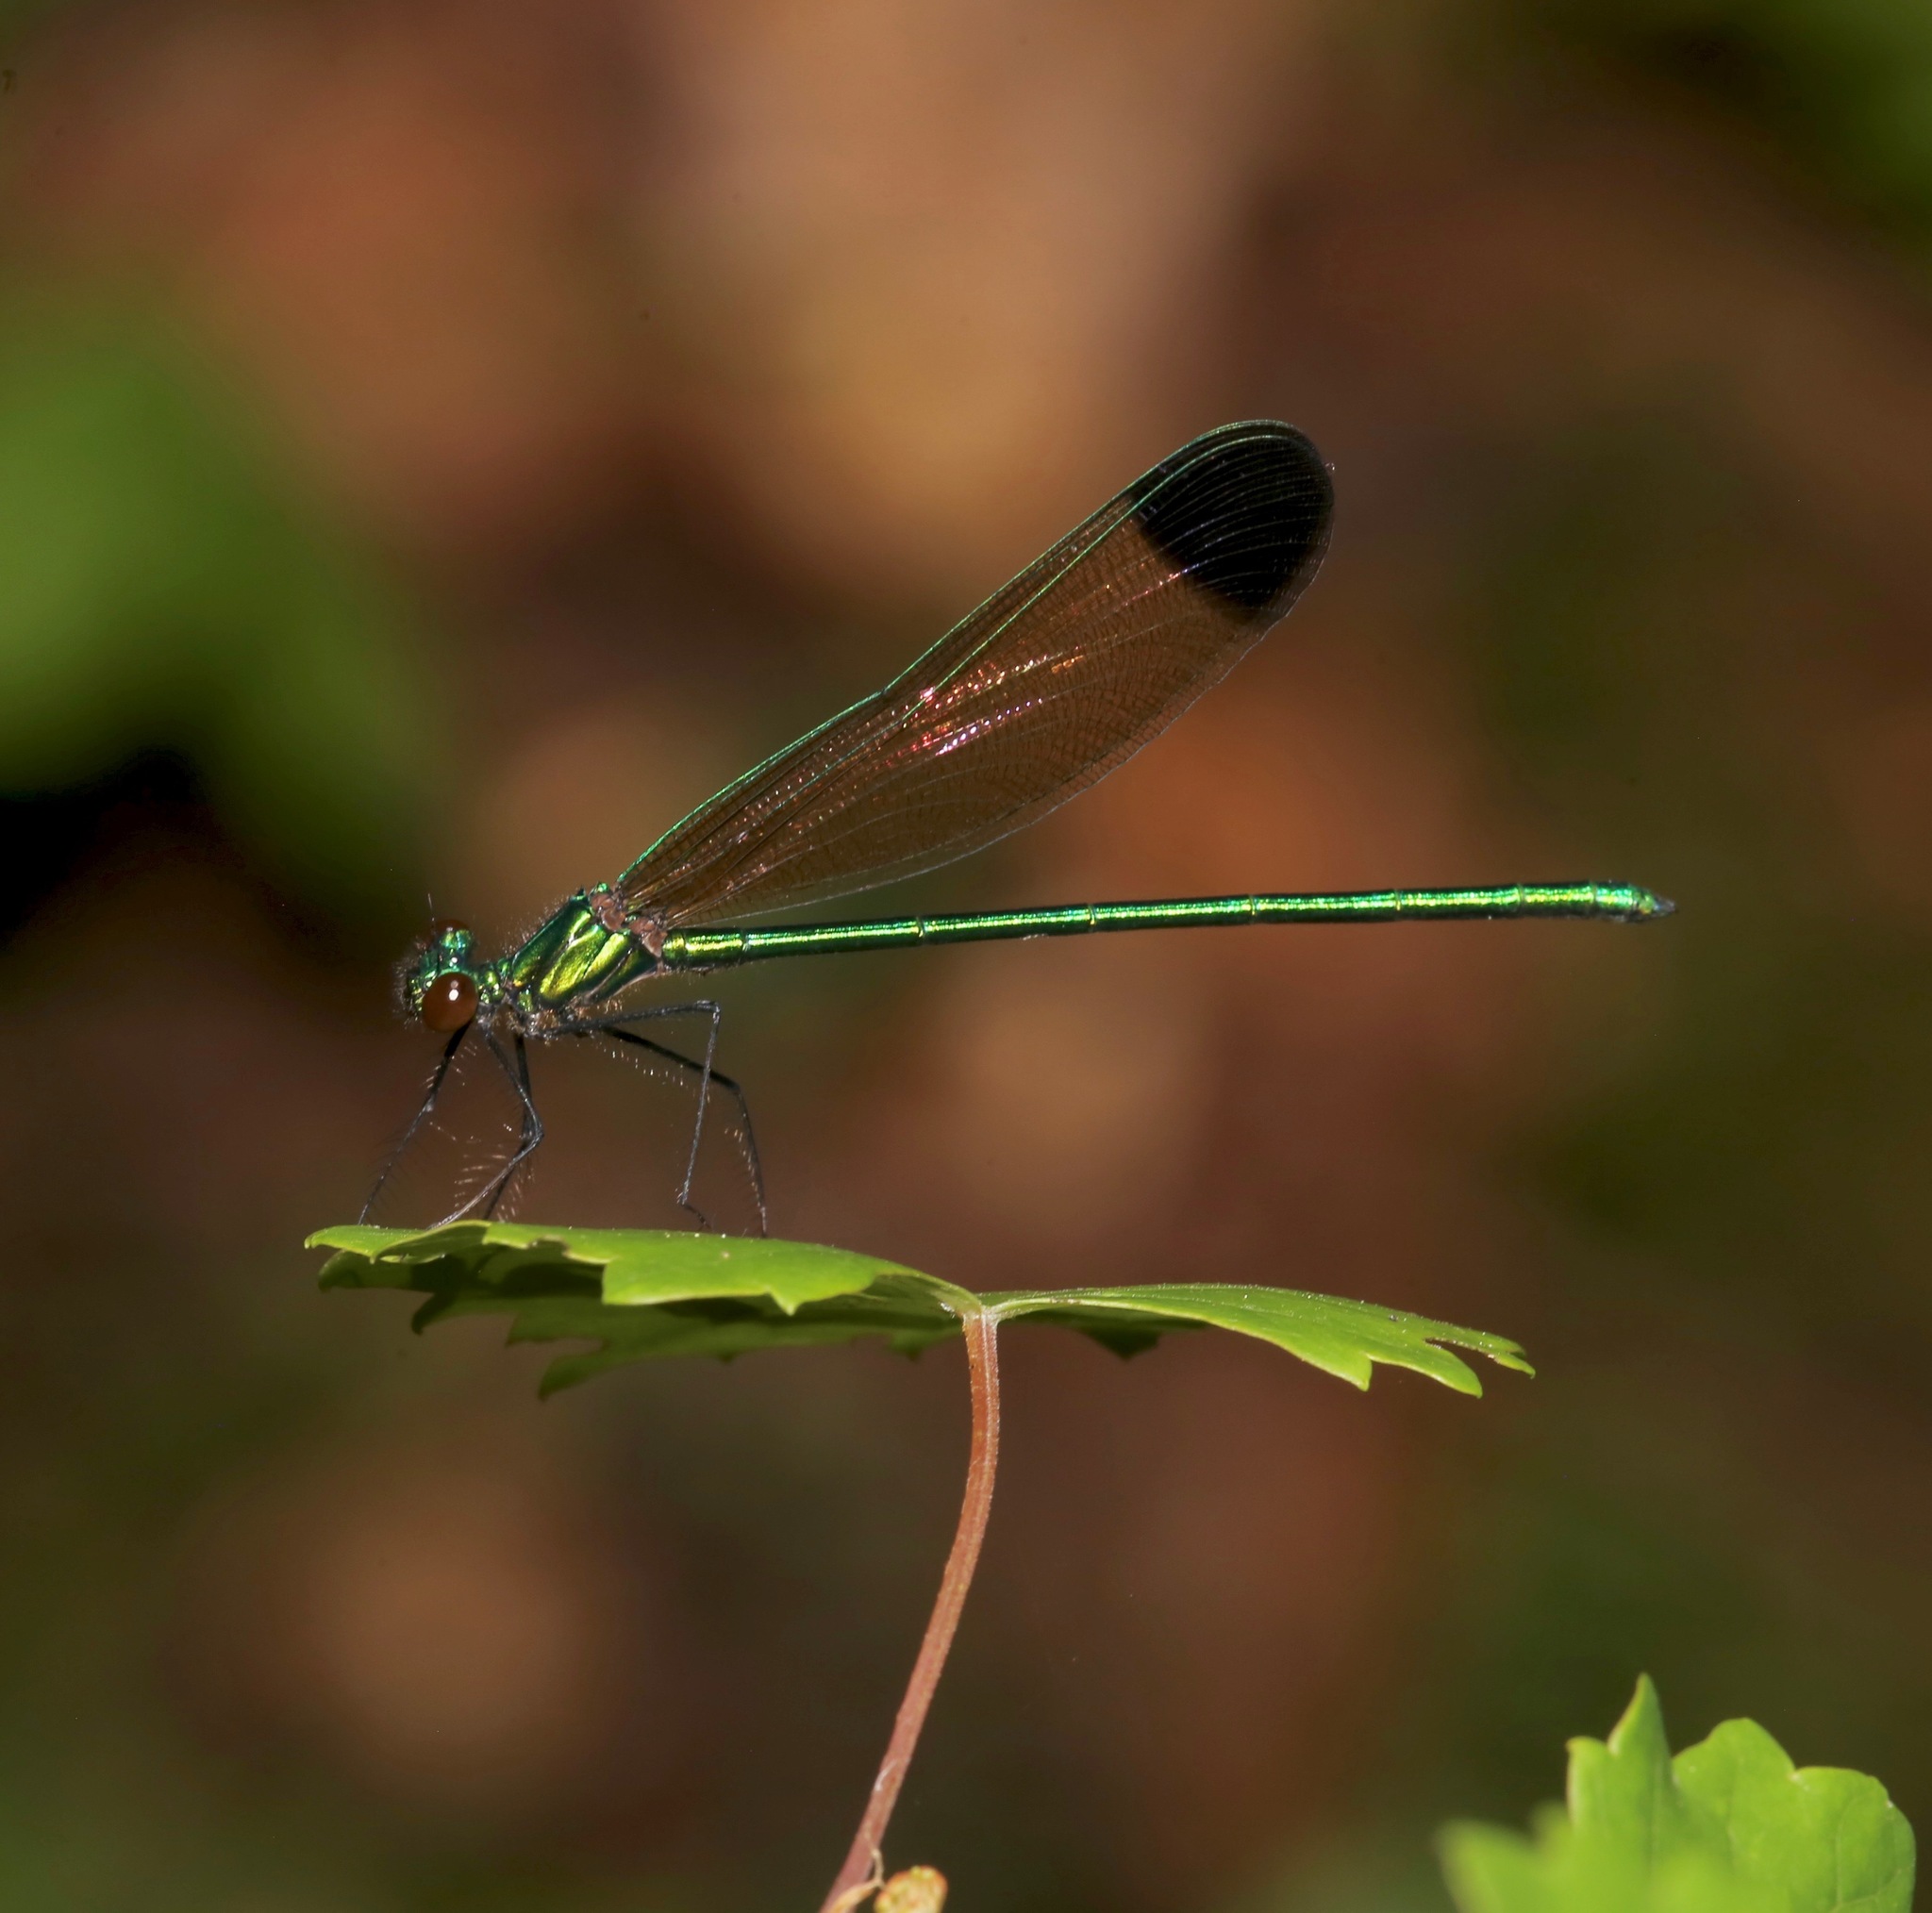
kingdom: Animalia
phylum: Arthropoda
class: Insecta
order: Odonata
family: Calopterygidae
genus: Calopteryx
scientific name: Calopteryx dimidiata
